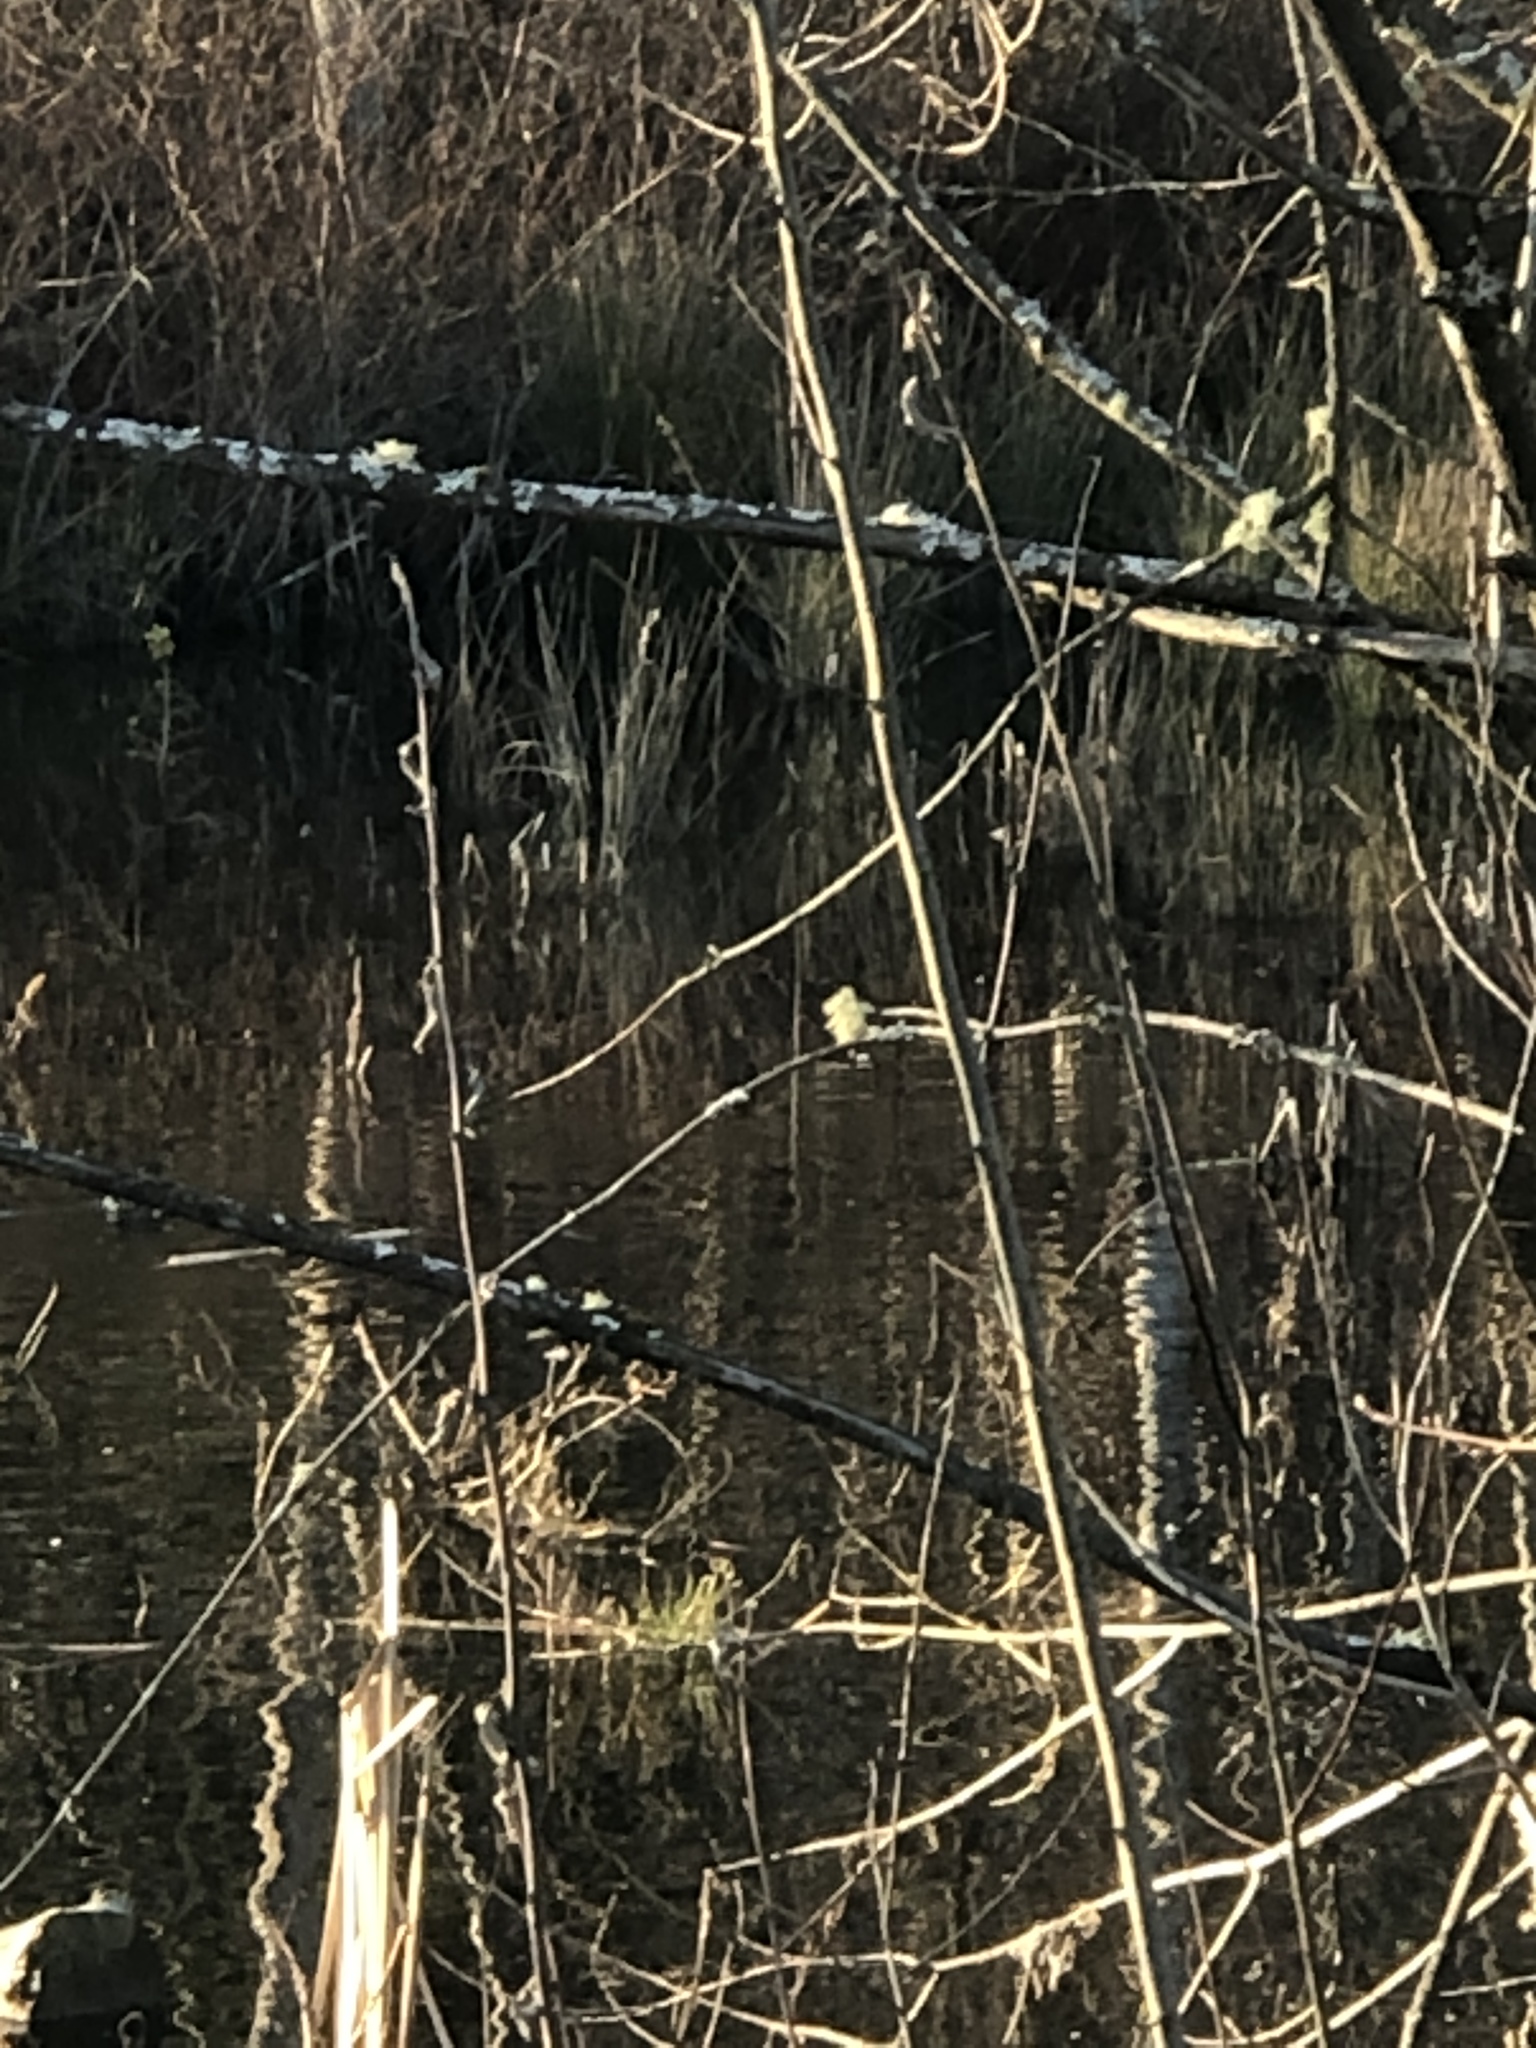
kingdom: Animalia
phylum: Chordata
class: Aves
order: Anseriformes
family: Anatidae
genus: Lophodytes
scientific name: Lophodytes cucullatus
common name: Hooded merganser
